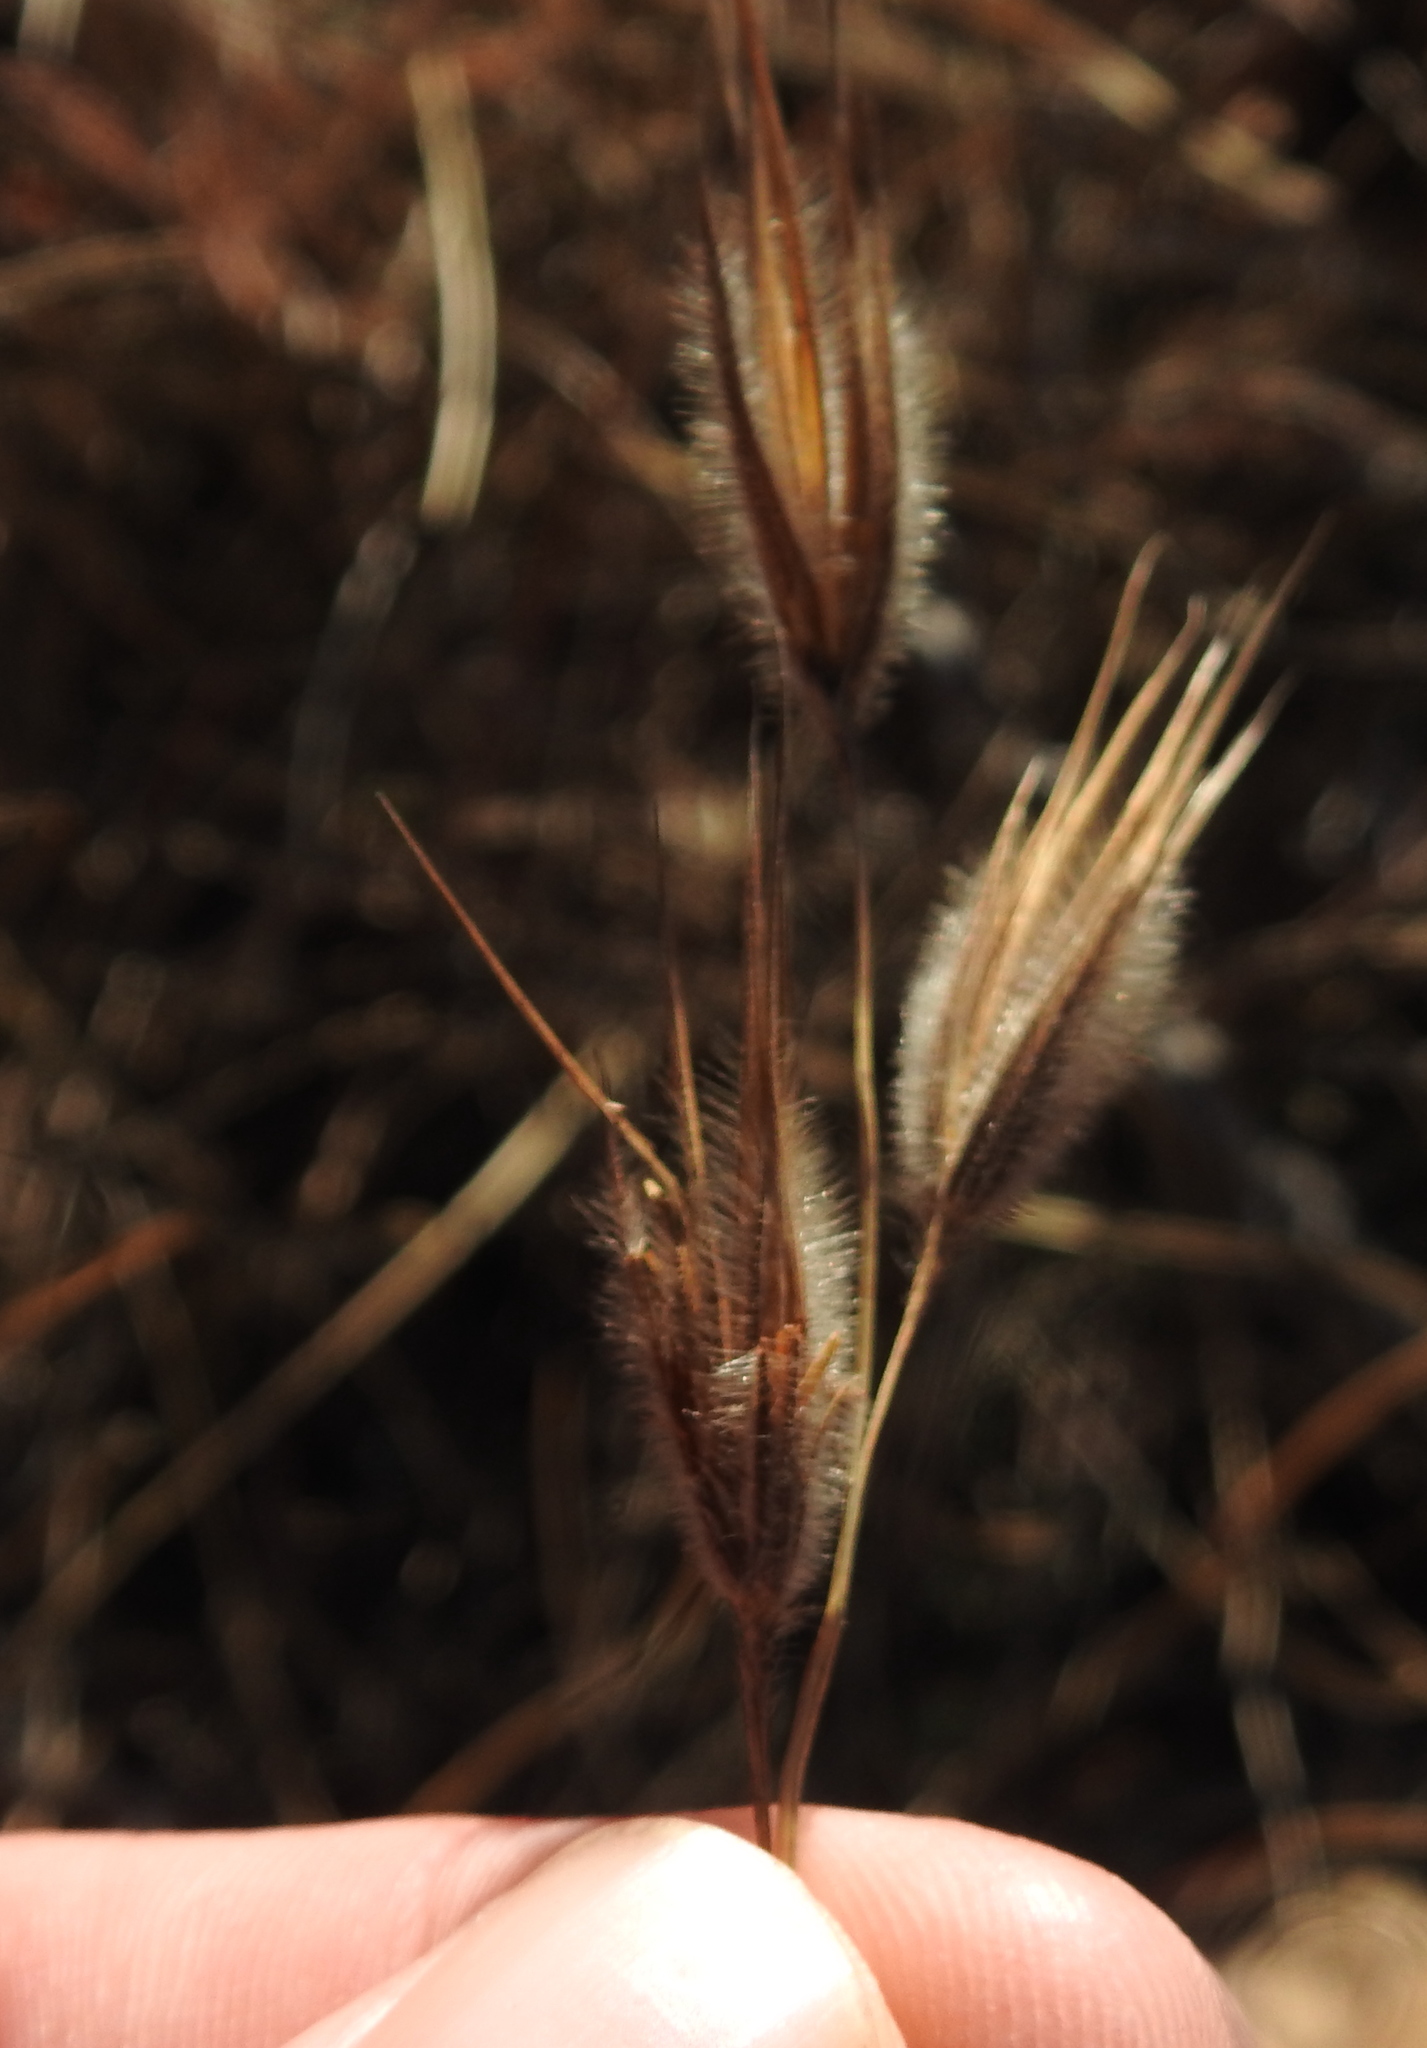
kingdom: Plantae
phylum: Tracheophyta
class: Liliopsida
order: Poales
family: Poaceae
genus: Tristachya
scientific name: Tristachya leucothrix
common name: Trident grass
